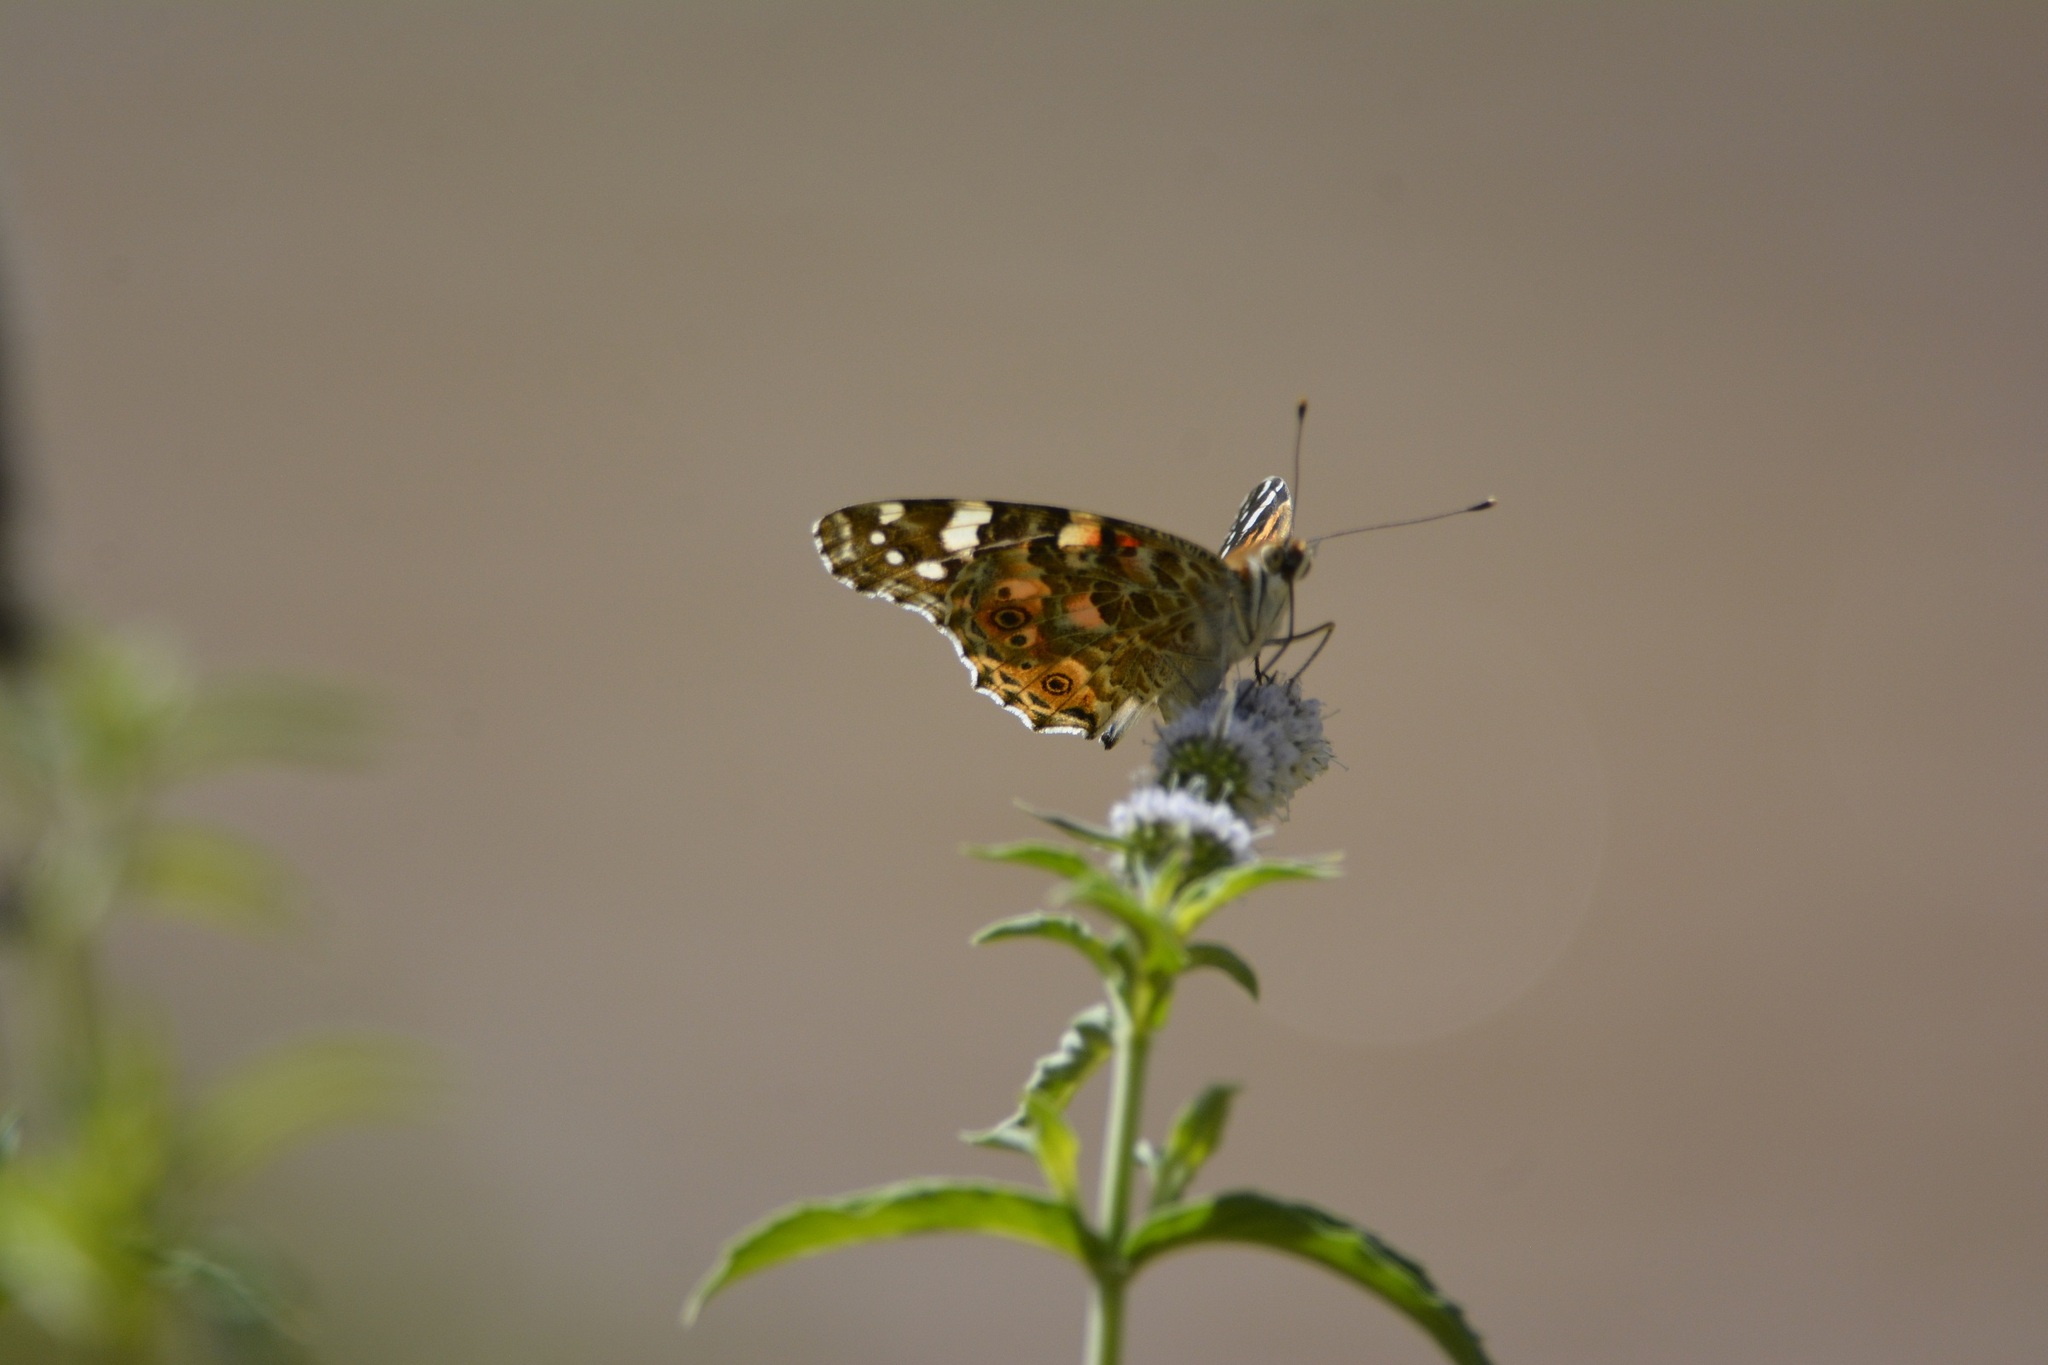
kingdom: Animalia
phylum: Arthropoda
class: Insecta
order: Lepidoptera
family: Nymphalidae
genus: Vanessa
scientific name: Vanessa cardui
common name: Painted lady
